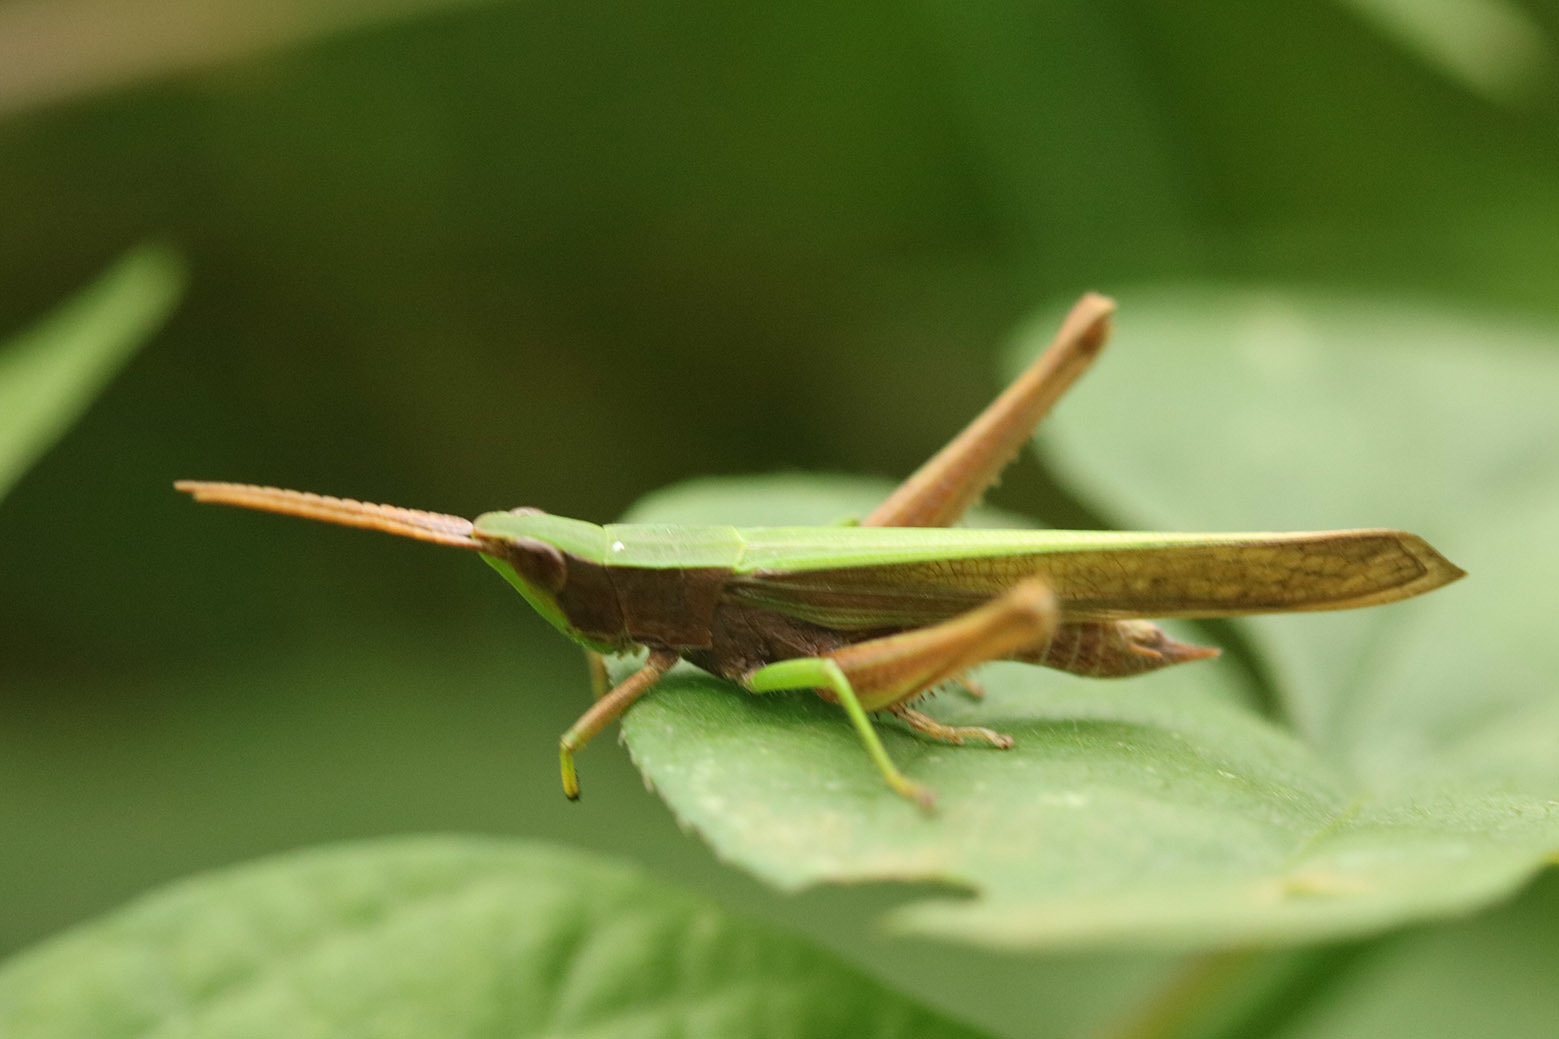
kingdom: Animalia
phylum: Arthropoda
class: Insecta
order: Orthoptera
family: Acrididae
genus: Metaleptea
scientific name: Metaleptea adspersa
